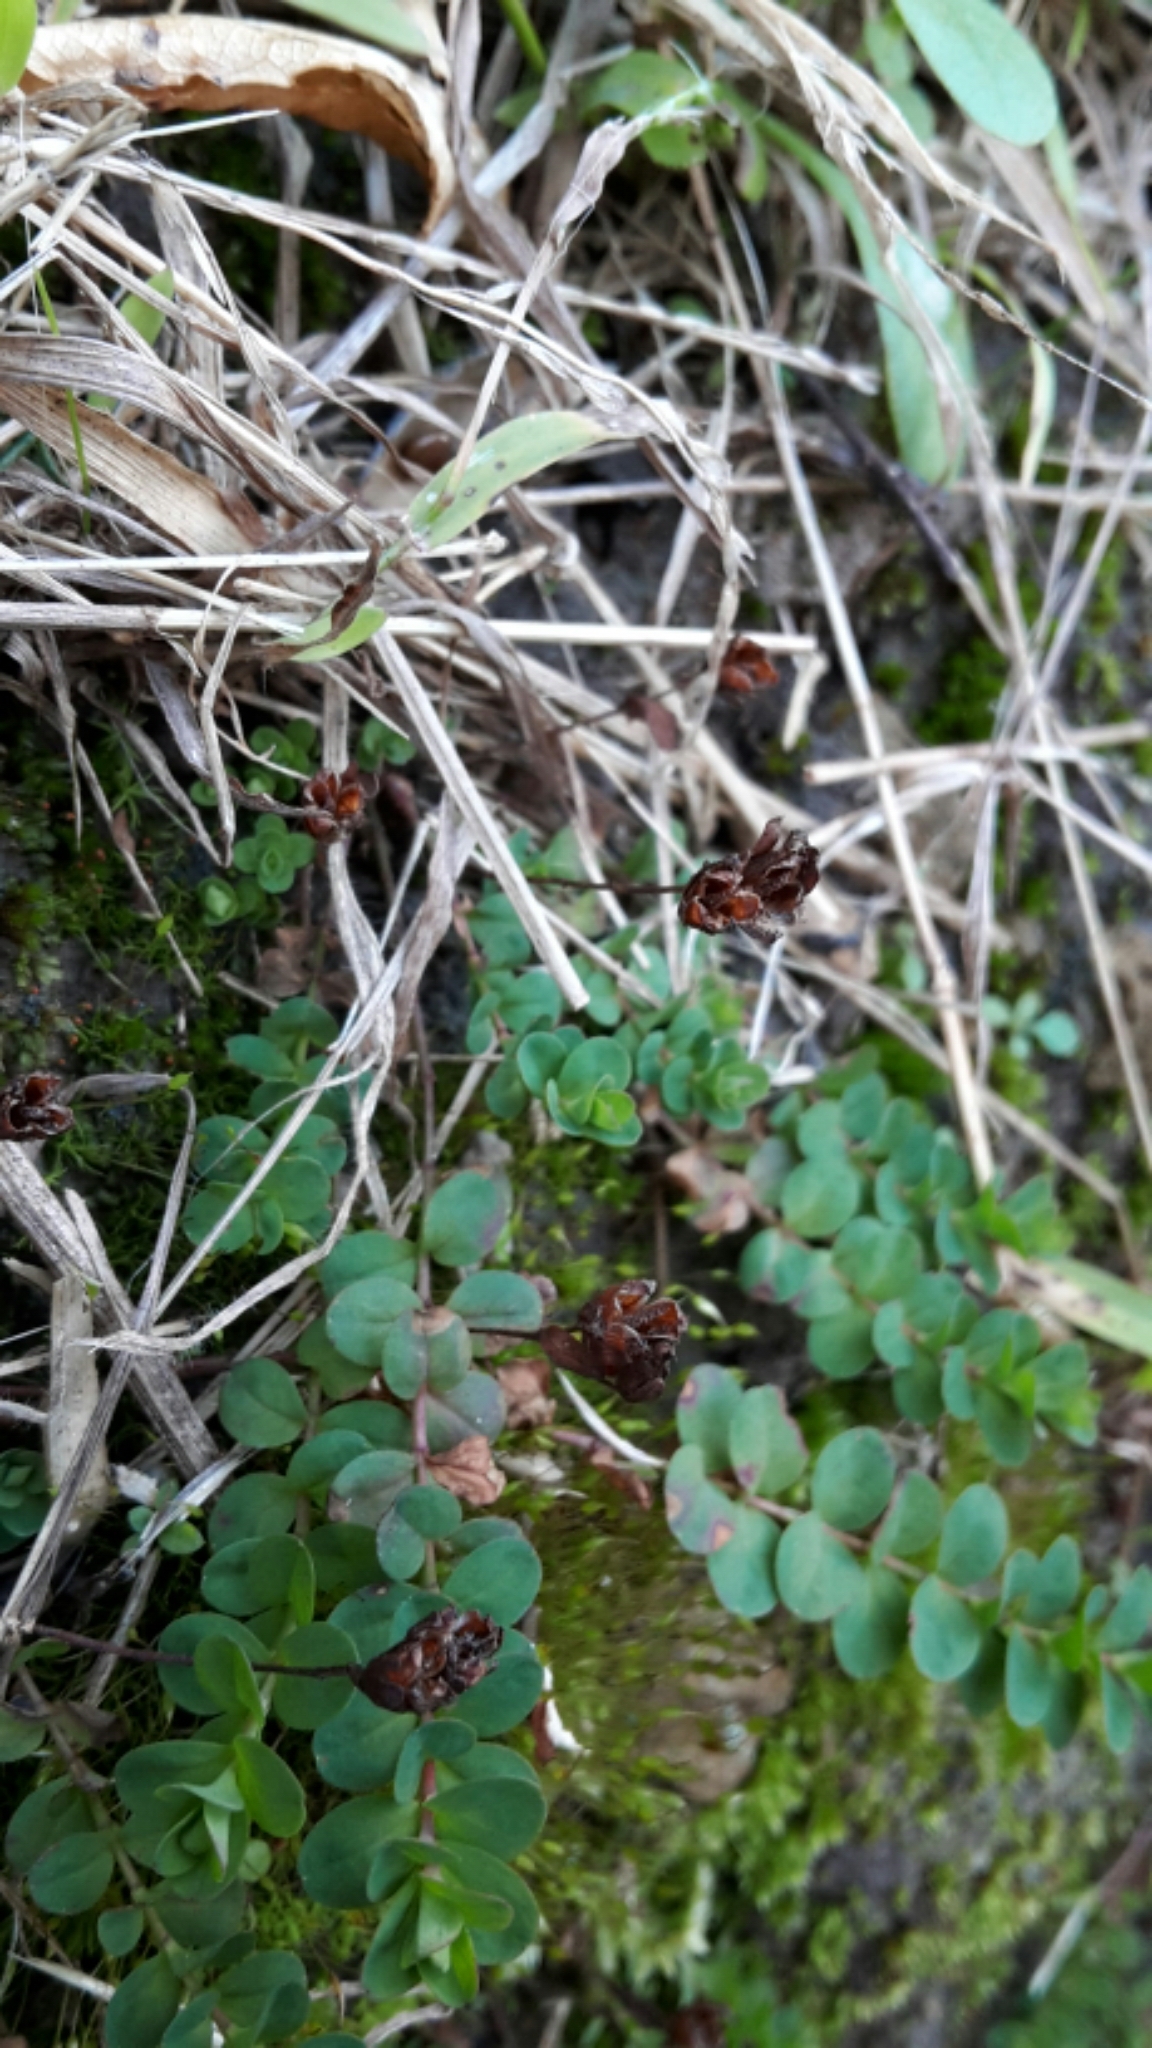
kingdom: Plantae
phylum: Tracheophyta
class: Magnoliopsida
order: Malpighiales
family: Hypericaceae
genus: Hypericum
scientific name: Hypericum humifusum
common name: Trailing st. john's-wort
